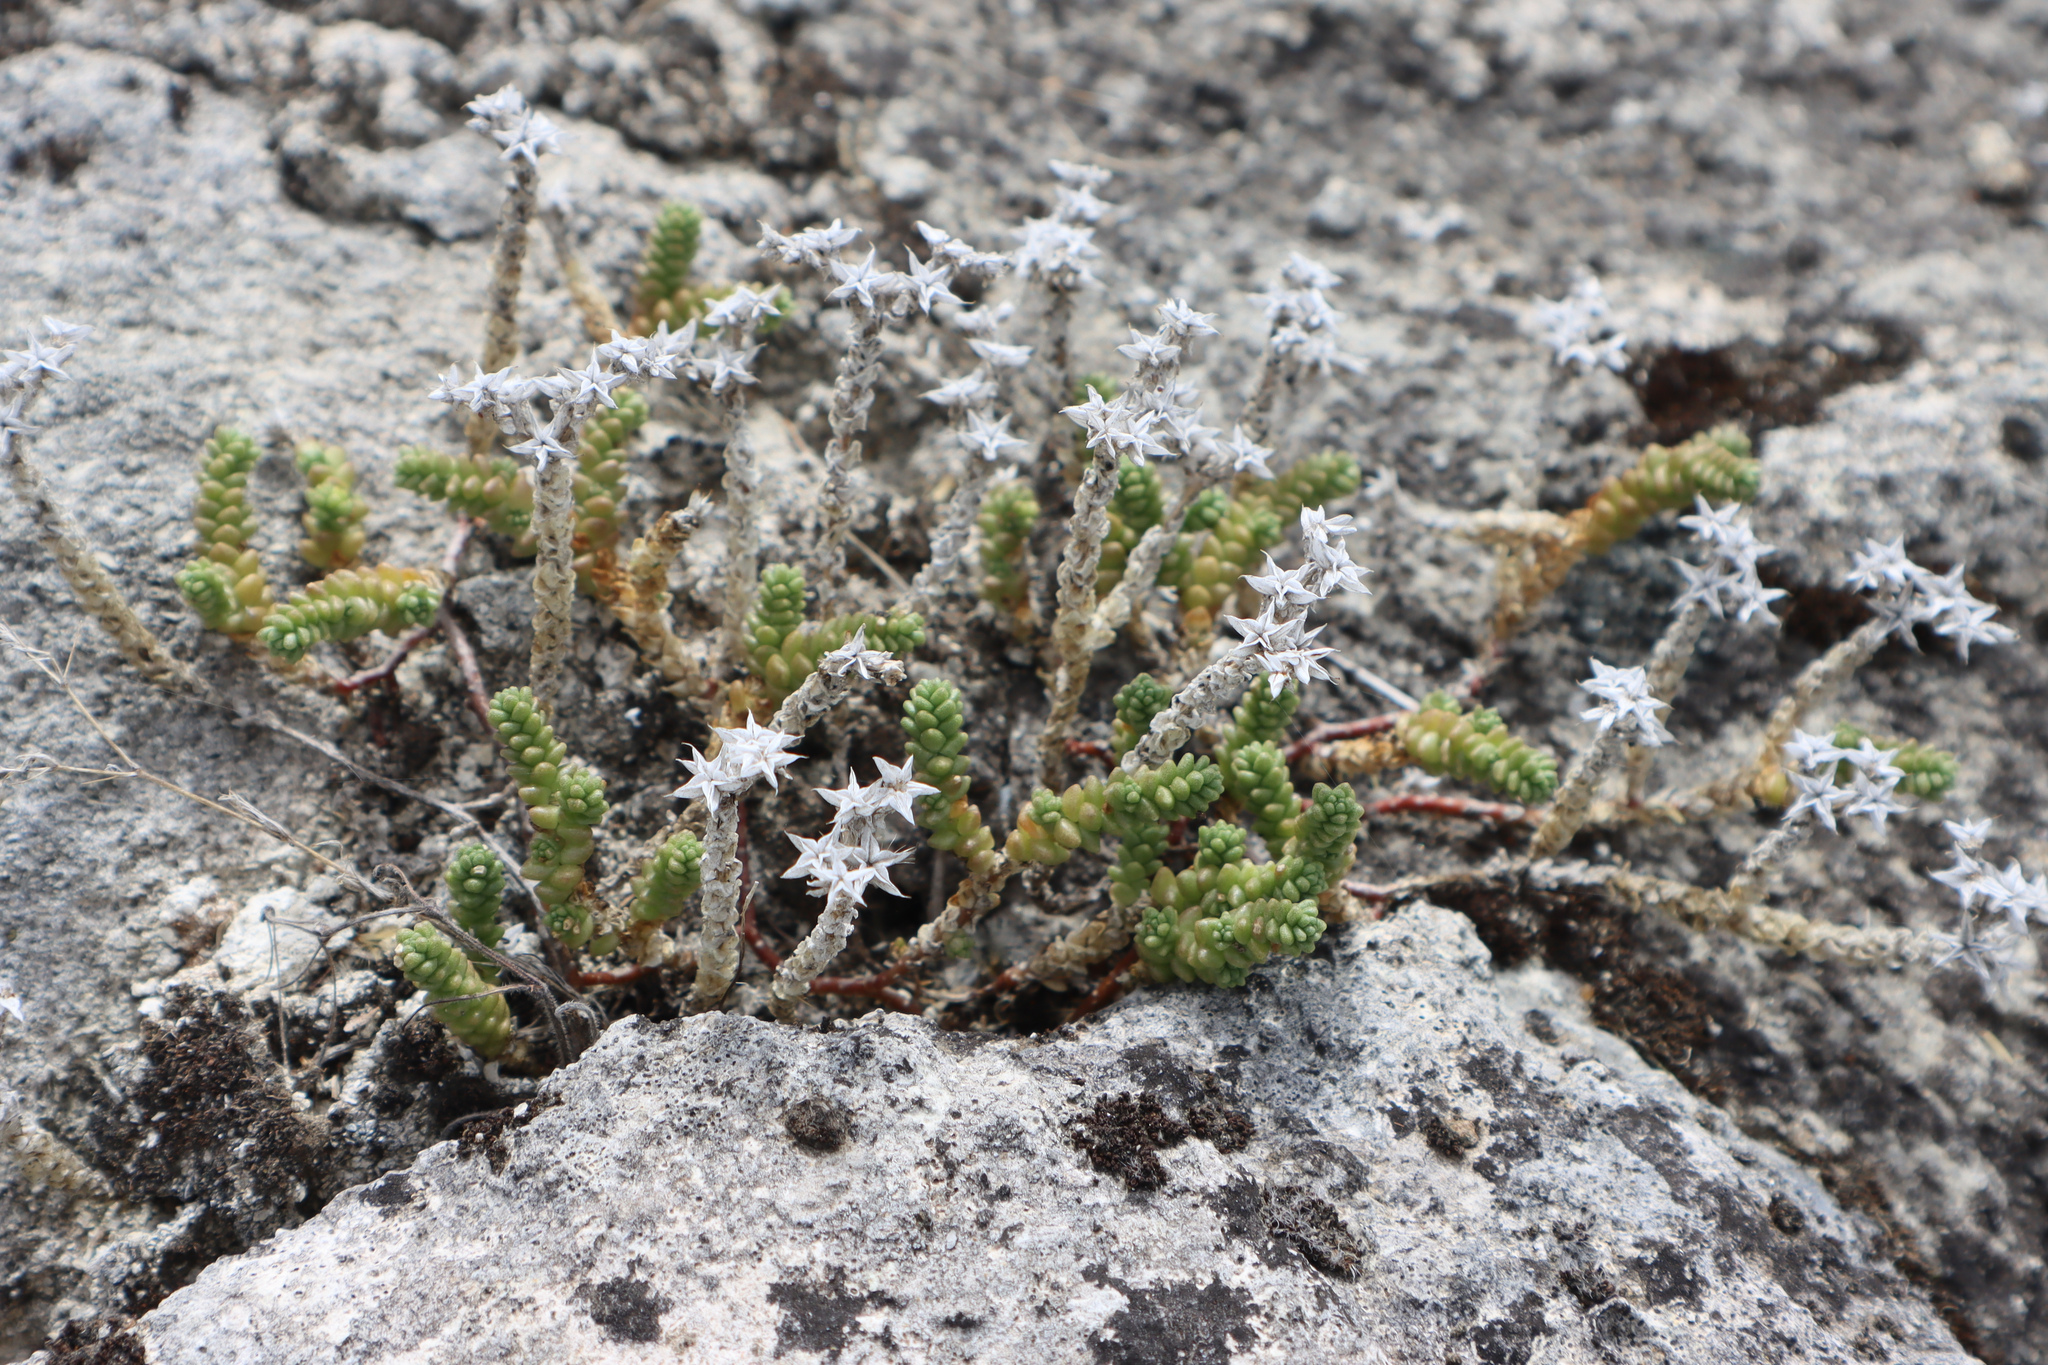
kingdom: Plantae
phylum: Tracheophyta
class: Magnoliopsida
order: Saxifragales
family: Crassulaceae
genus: Sedum
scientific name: Sedum acre
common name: Biting stonecrop
